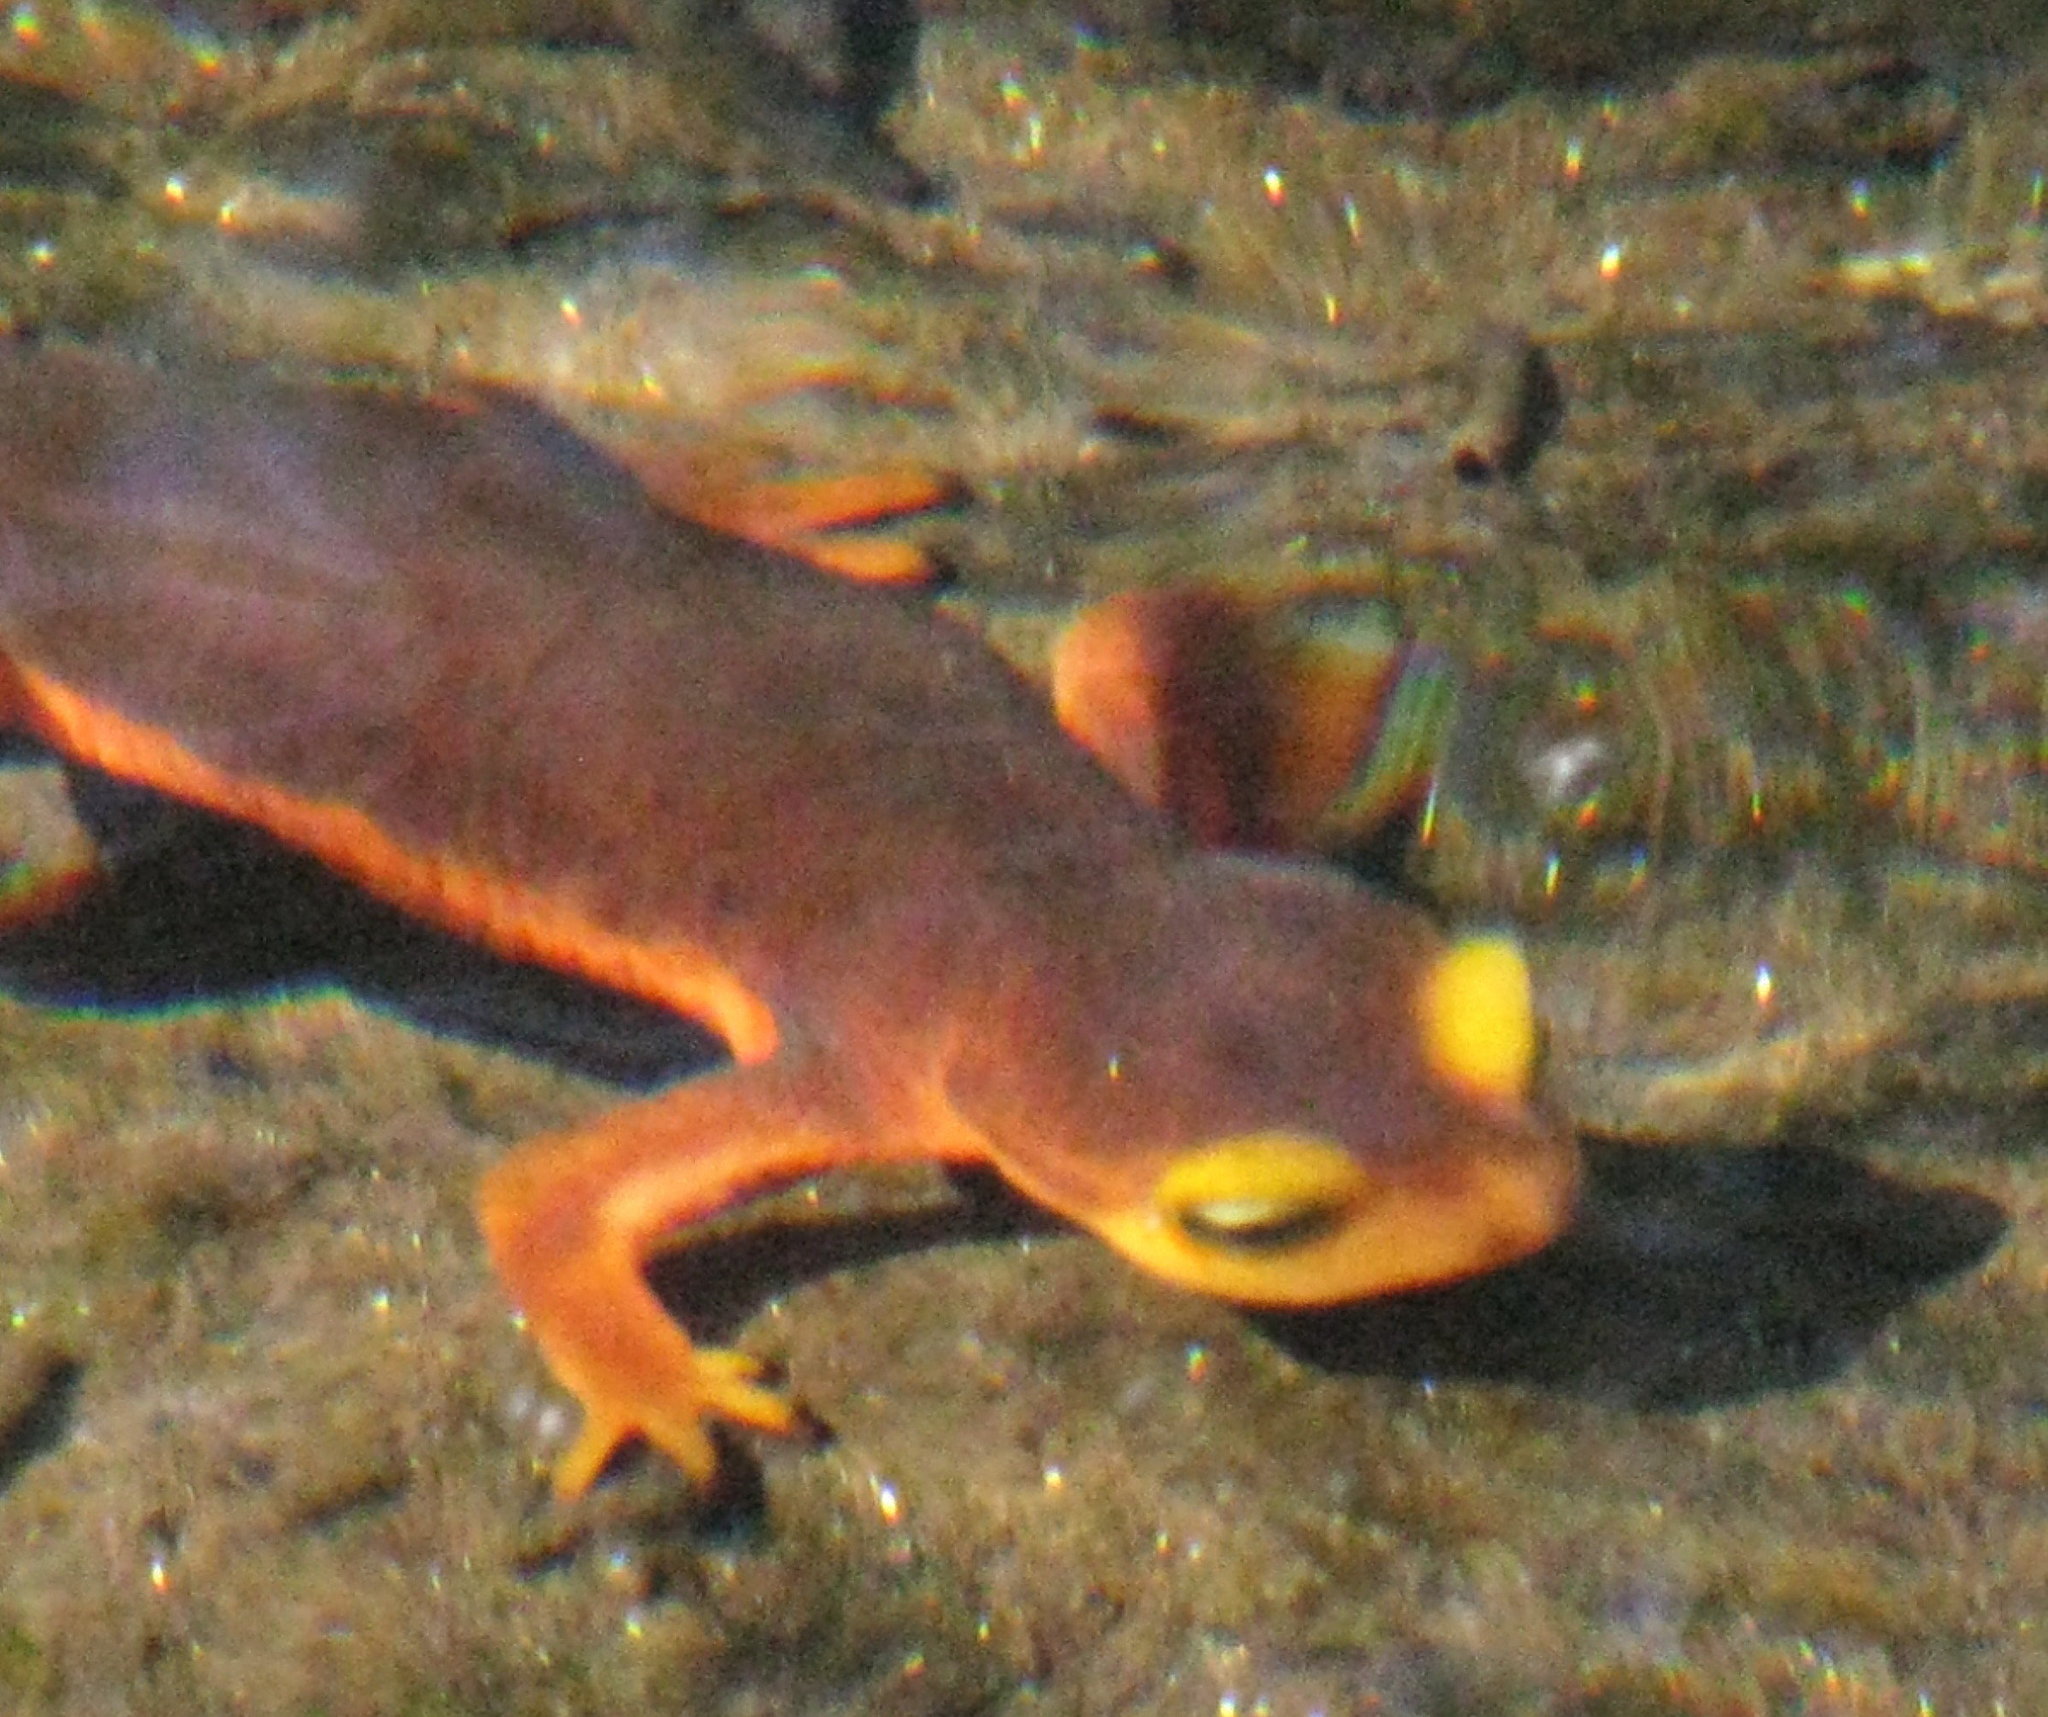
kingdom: Animalia
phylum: Chordata
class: Amphibia
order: Caudata
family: Salamandridae
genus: Taricha
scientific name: Taricha sierrae
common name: Sierra newt
